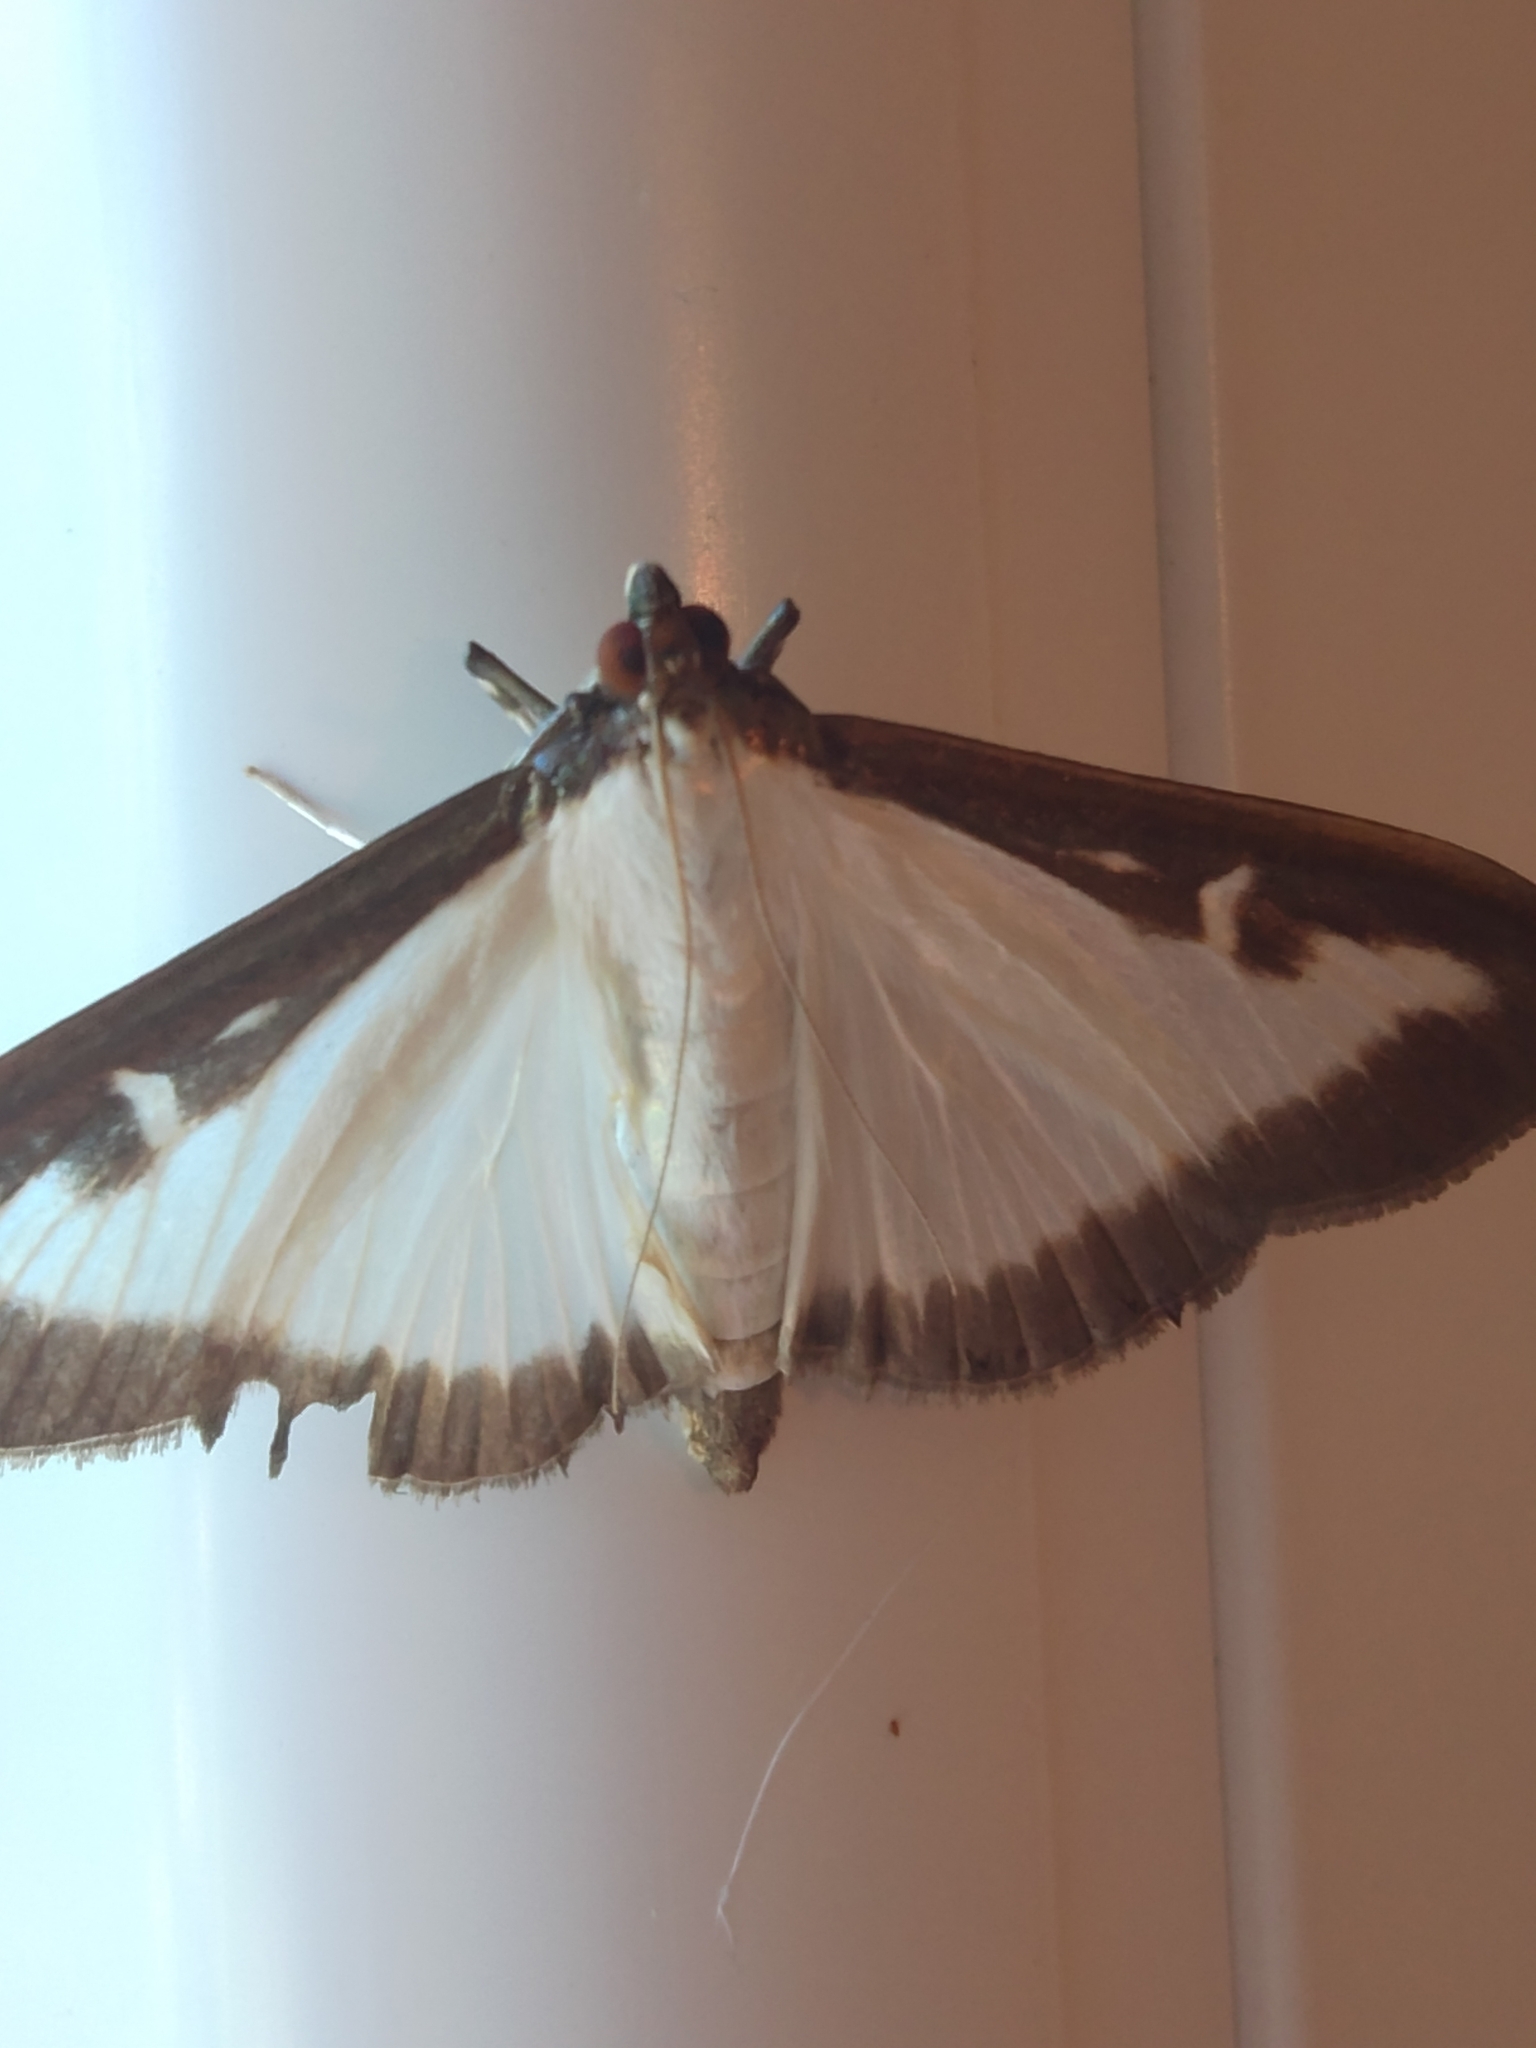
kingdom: Animalia
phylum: Arthropoda
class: Insecta
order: Lepidoptera
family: Crambidae
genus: Cydalima
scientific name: Cydalima perspectalis
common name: Box tree moth
